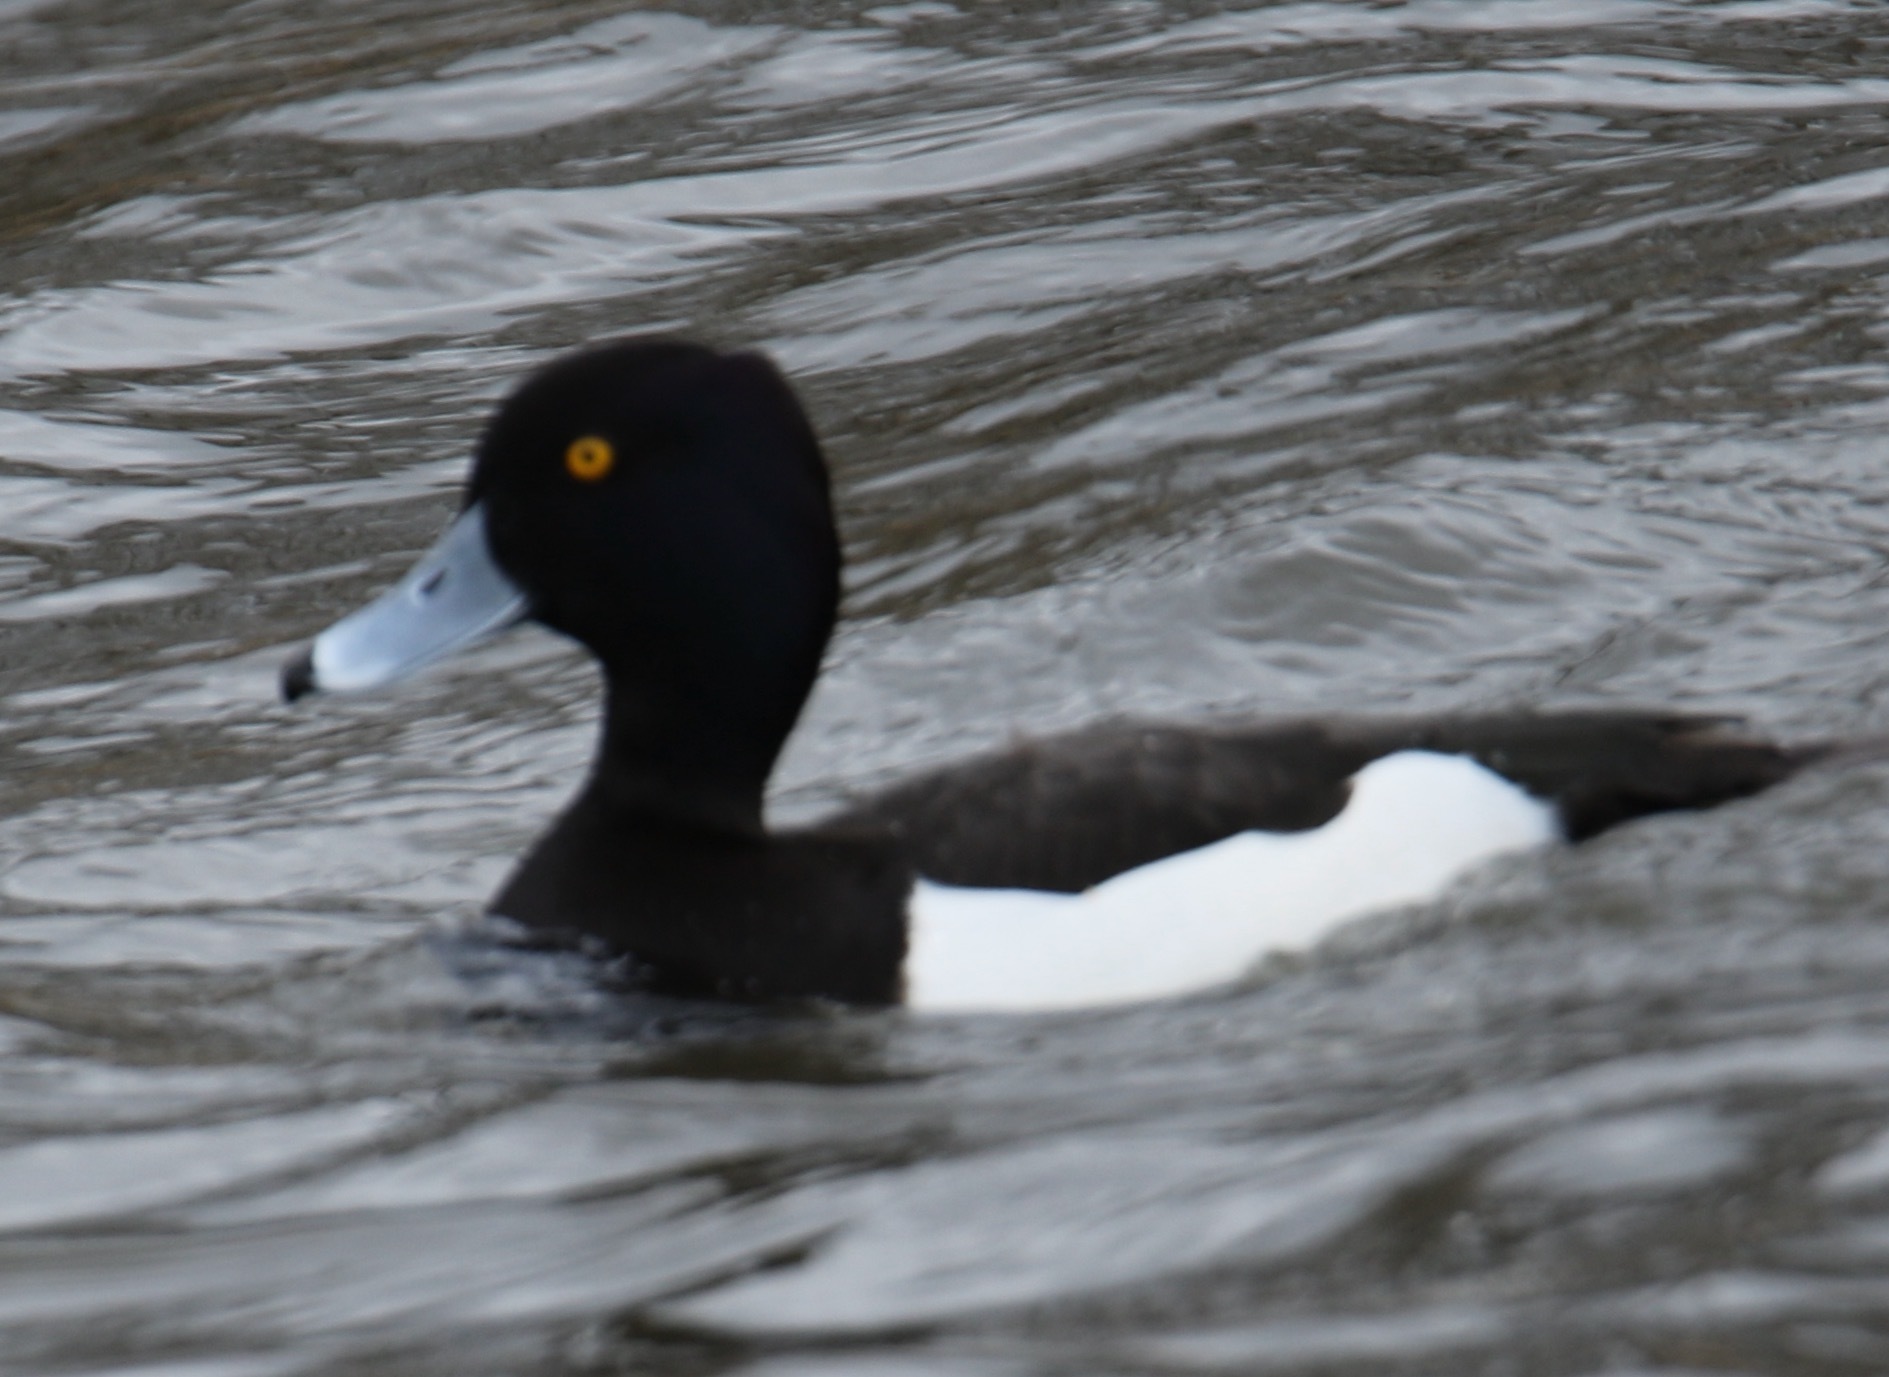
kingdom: Animalia
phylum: Chordata
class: Aves
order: Anseriformes
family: Anatidae
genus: Aythya
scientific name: Aythya fuligula
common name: Tufted duck
